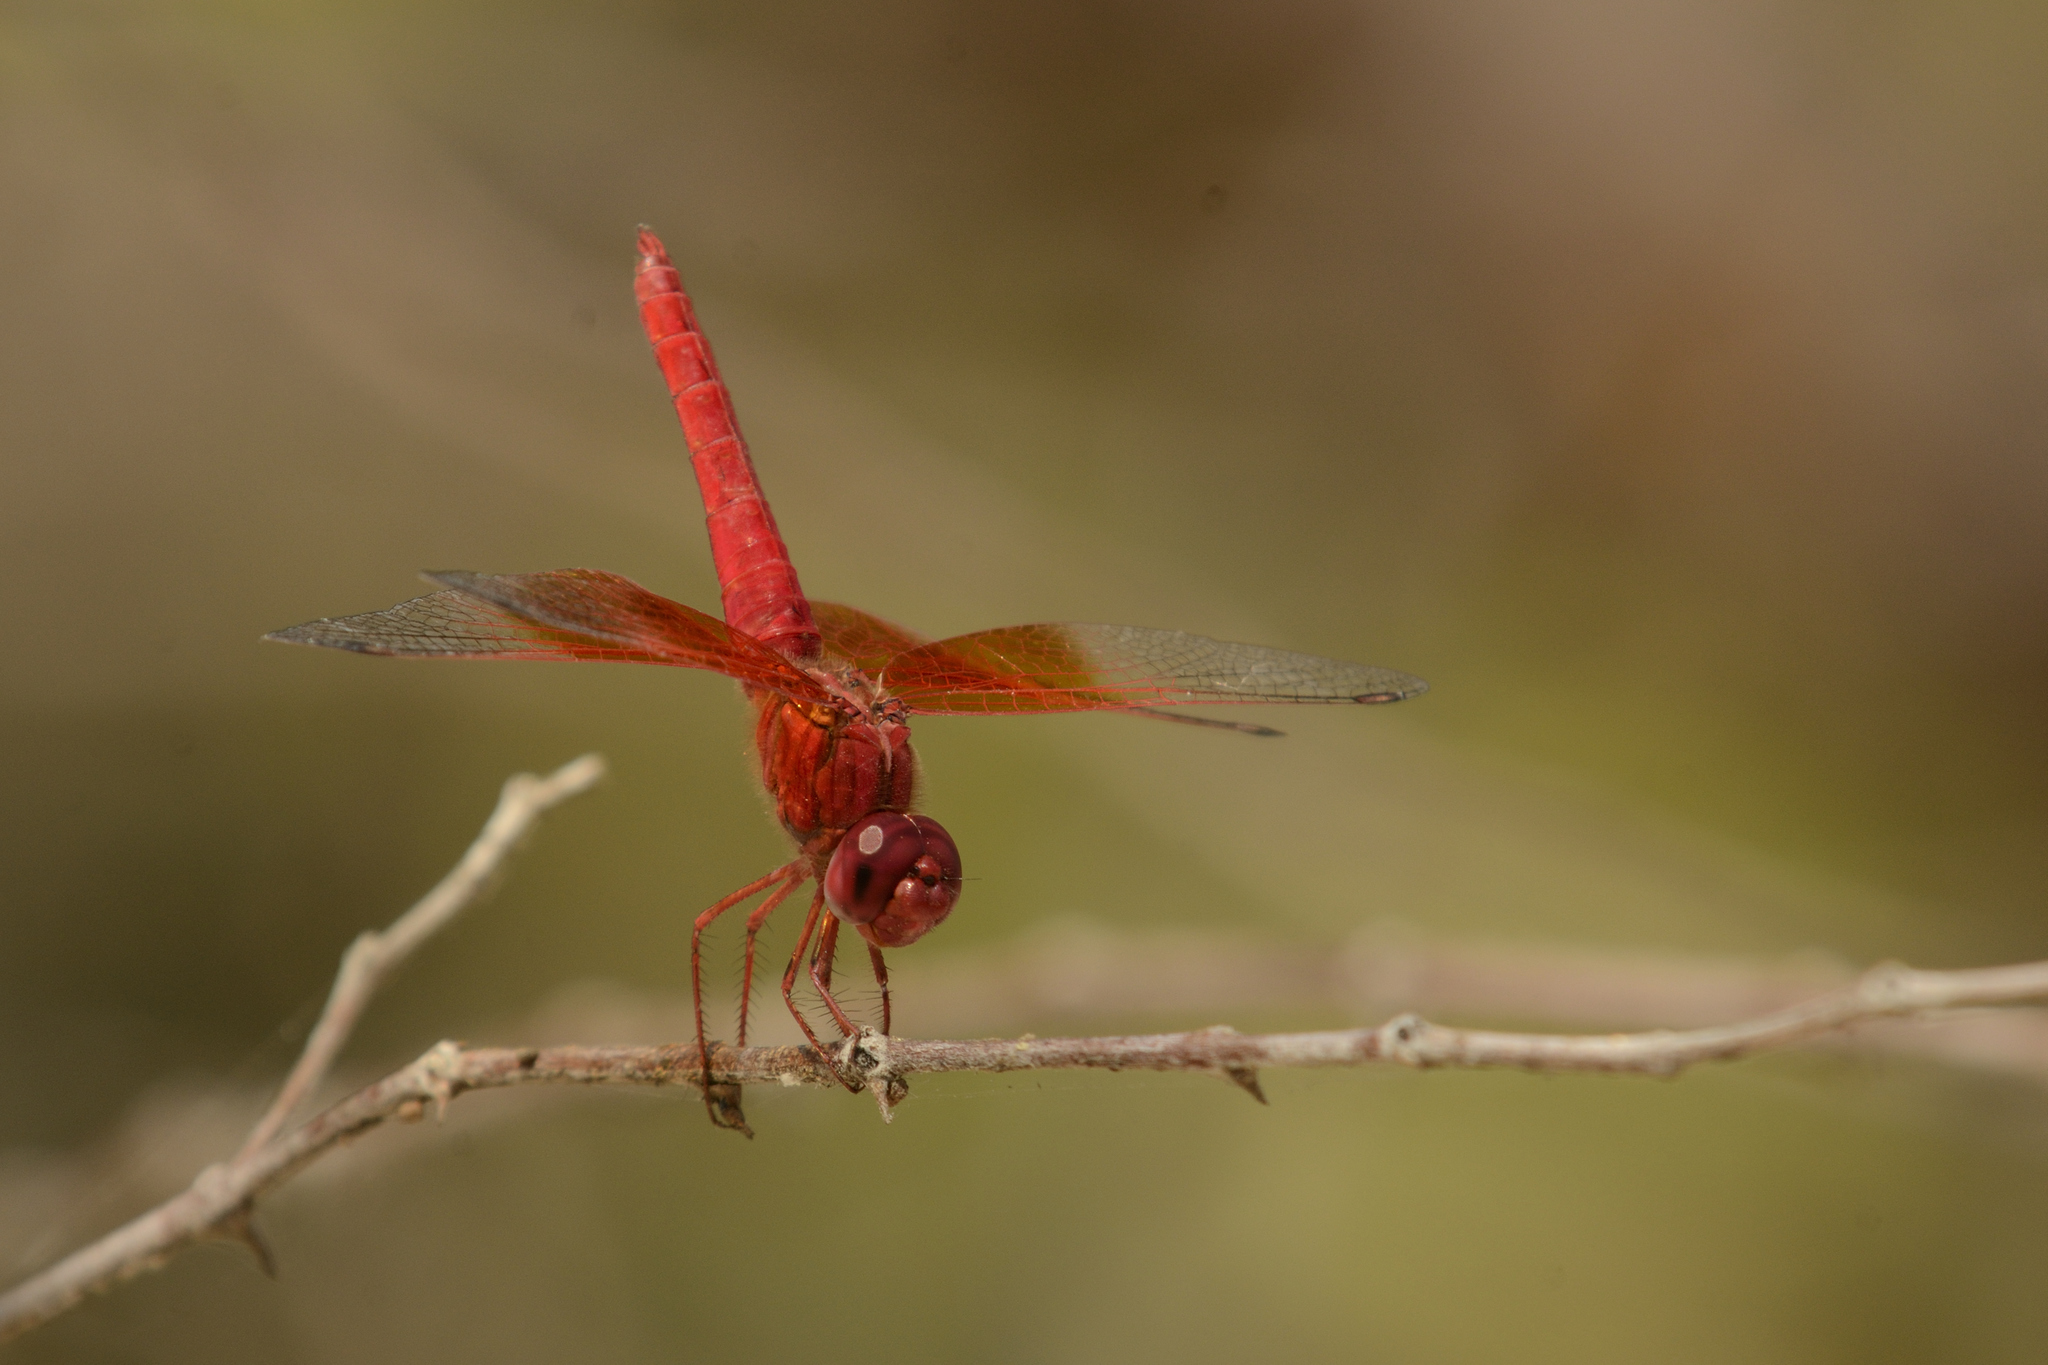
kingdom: Animalia
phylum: Arthropoda
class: Insecta
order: Odonata
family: Libellulidae
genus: Brachythemis
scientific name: Brachythemis lacustris
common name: Red groundling
